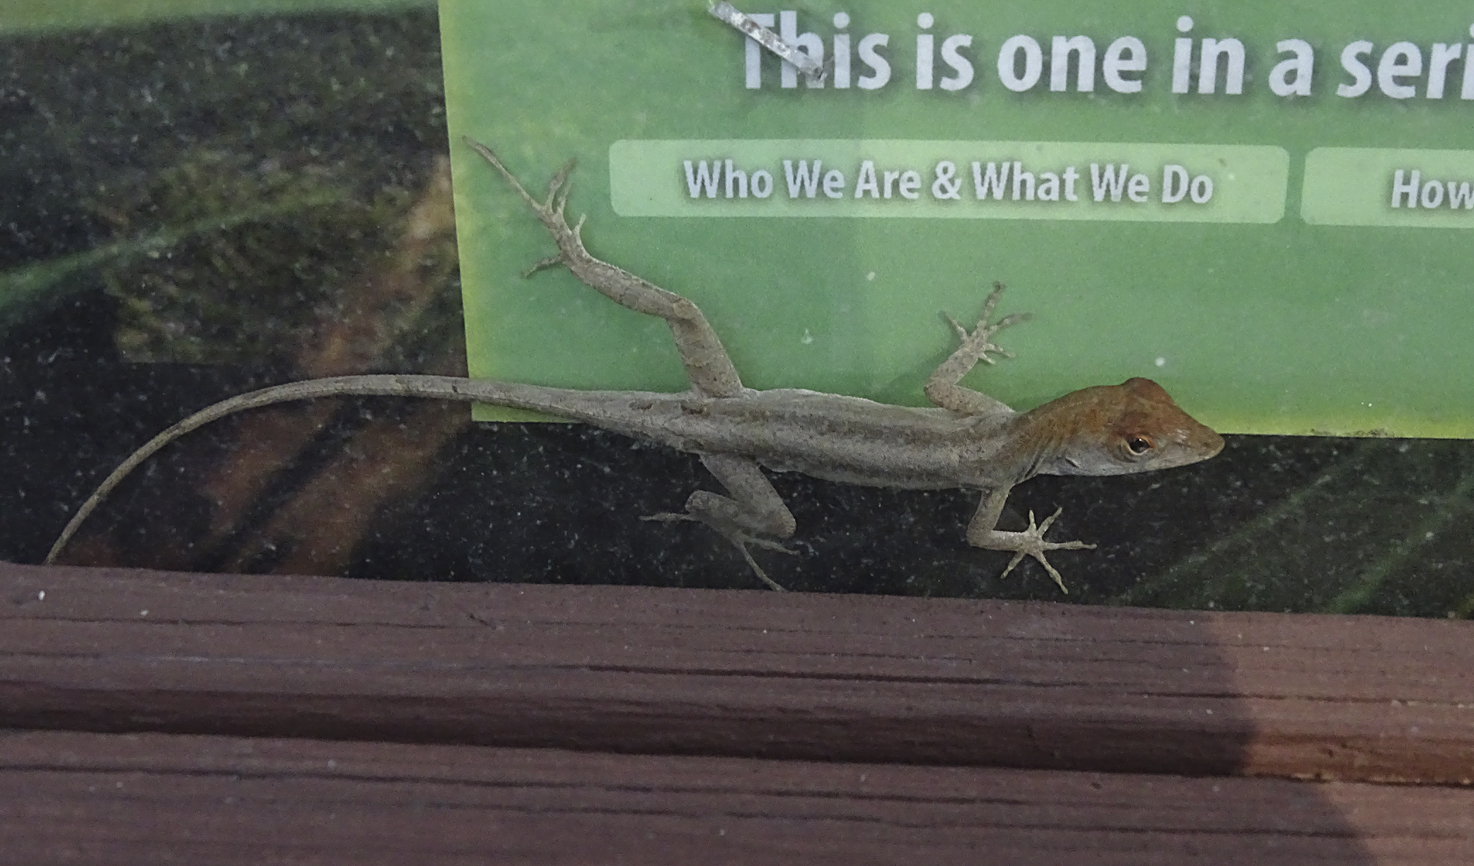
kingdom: Animalia
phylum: Chordata
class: Squamata
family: Dactyloidae
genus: Anolis
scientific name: Anolis sagrei
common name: Brown anole
